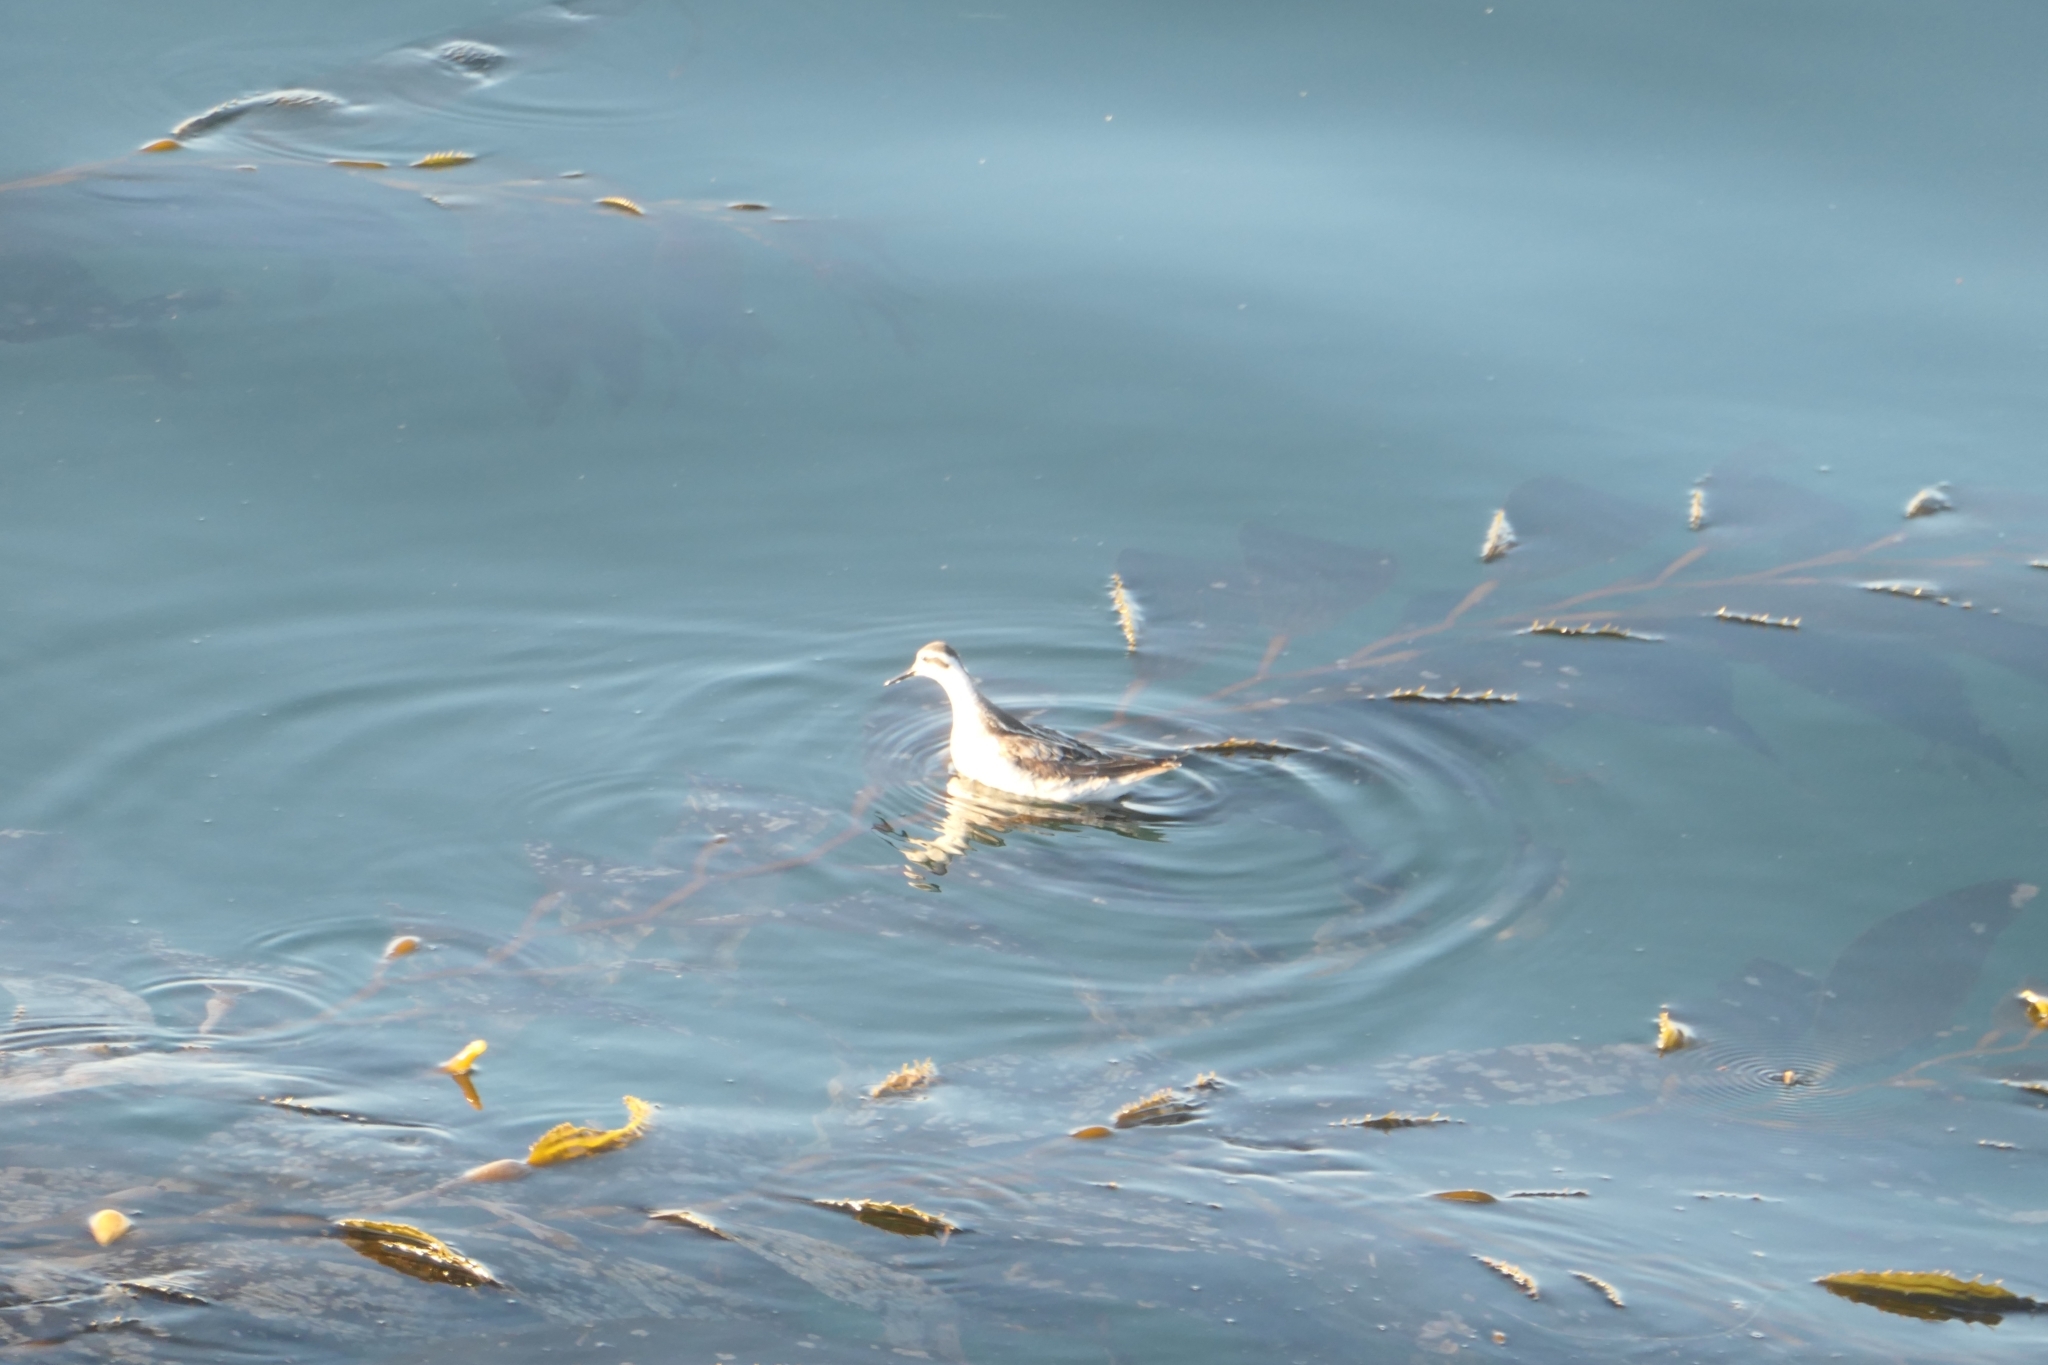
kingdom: Animalia
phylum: Chordata
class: Aves
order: Charadriiformes
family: Scolopacidae
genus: Phalaropus
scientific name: Phalaropus lobatus
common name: Red-necked phalarope
